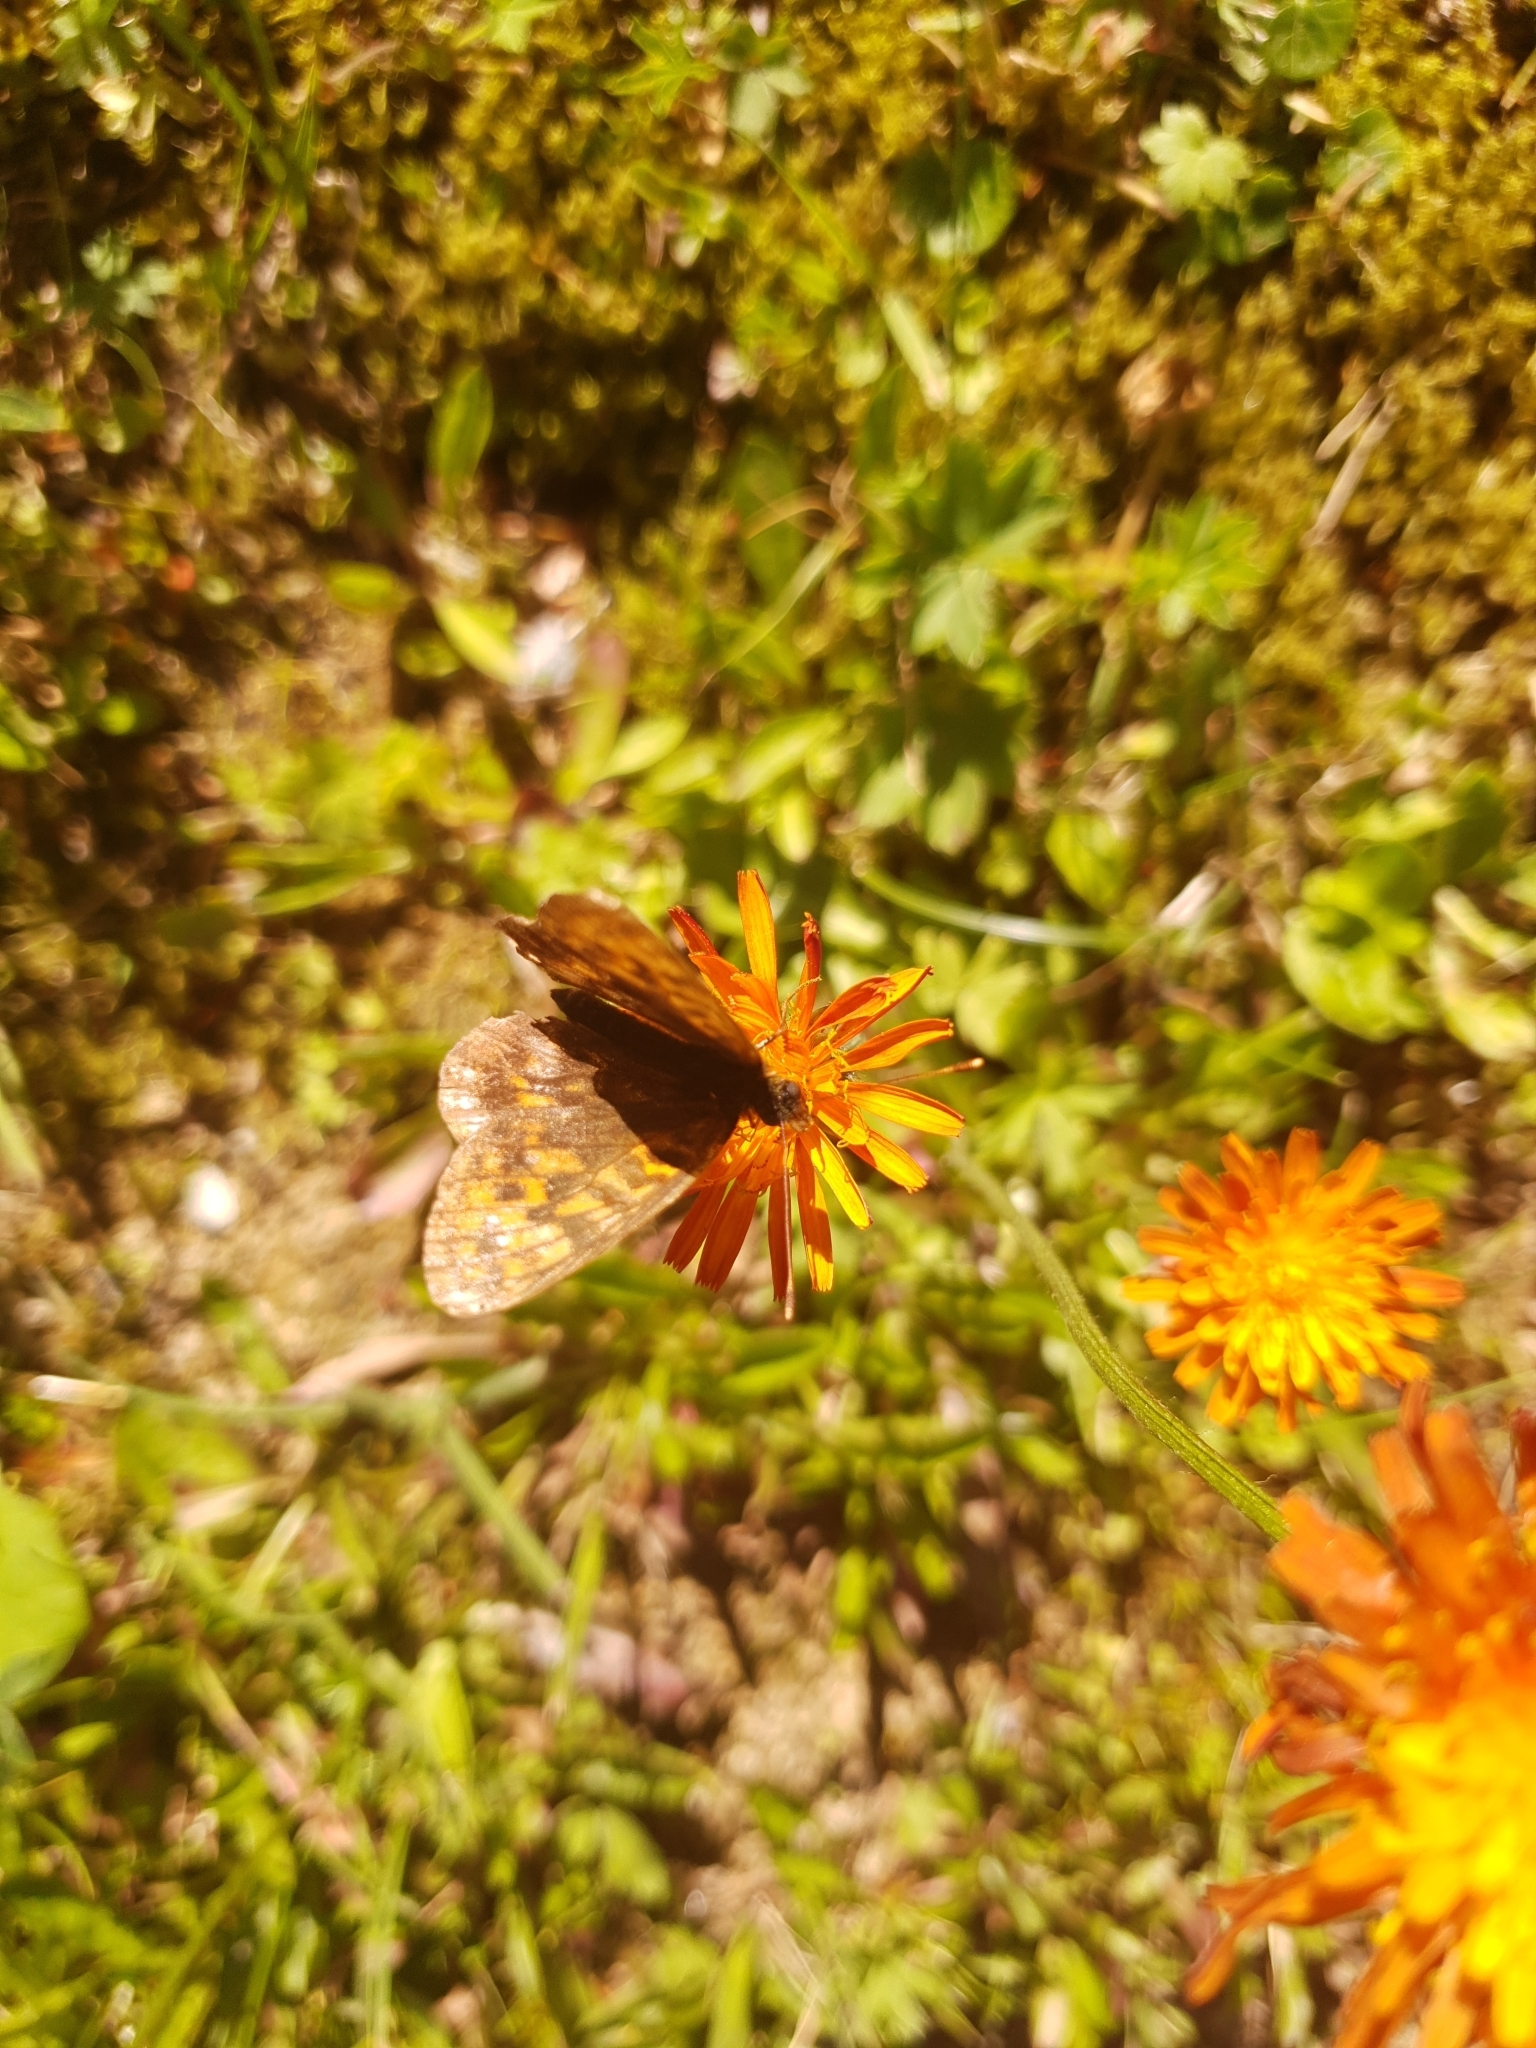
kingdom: Animalia
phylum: Arthropoda
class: Insecta
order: Lepidoptera
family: Nymphalidae
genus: Boloria
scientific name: Boloria thore
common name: Thor's fritillary
